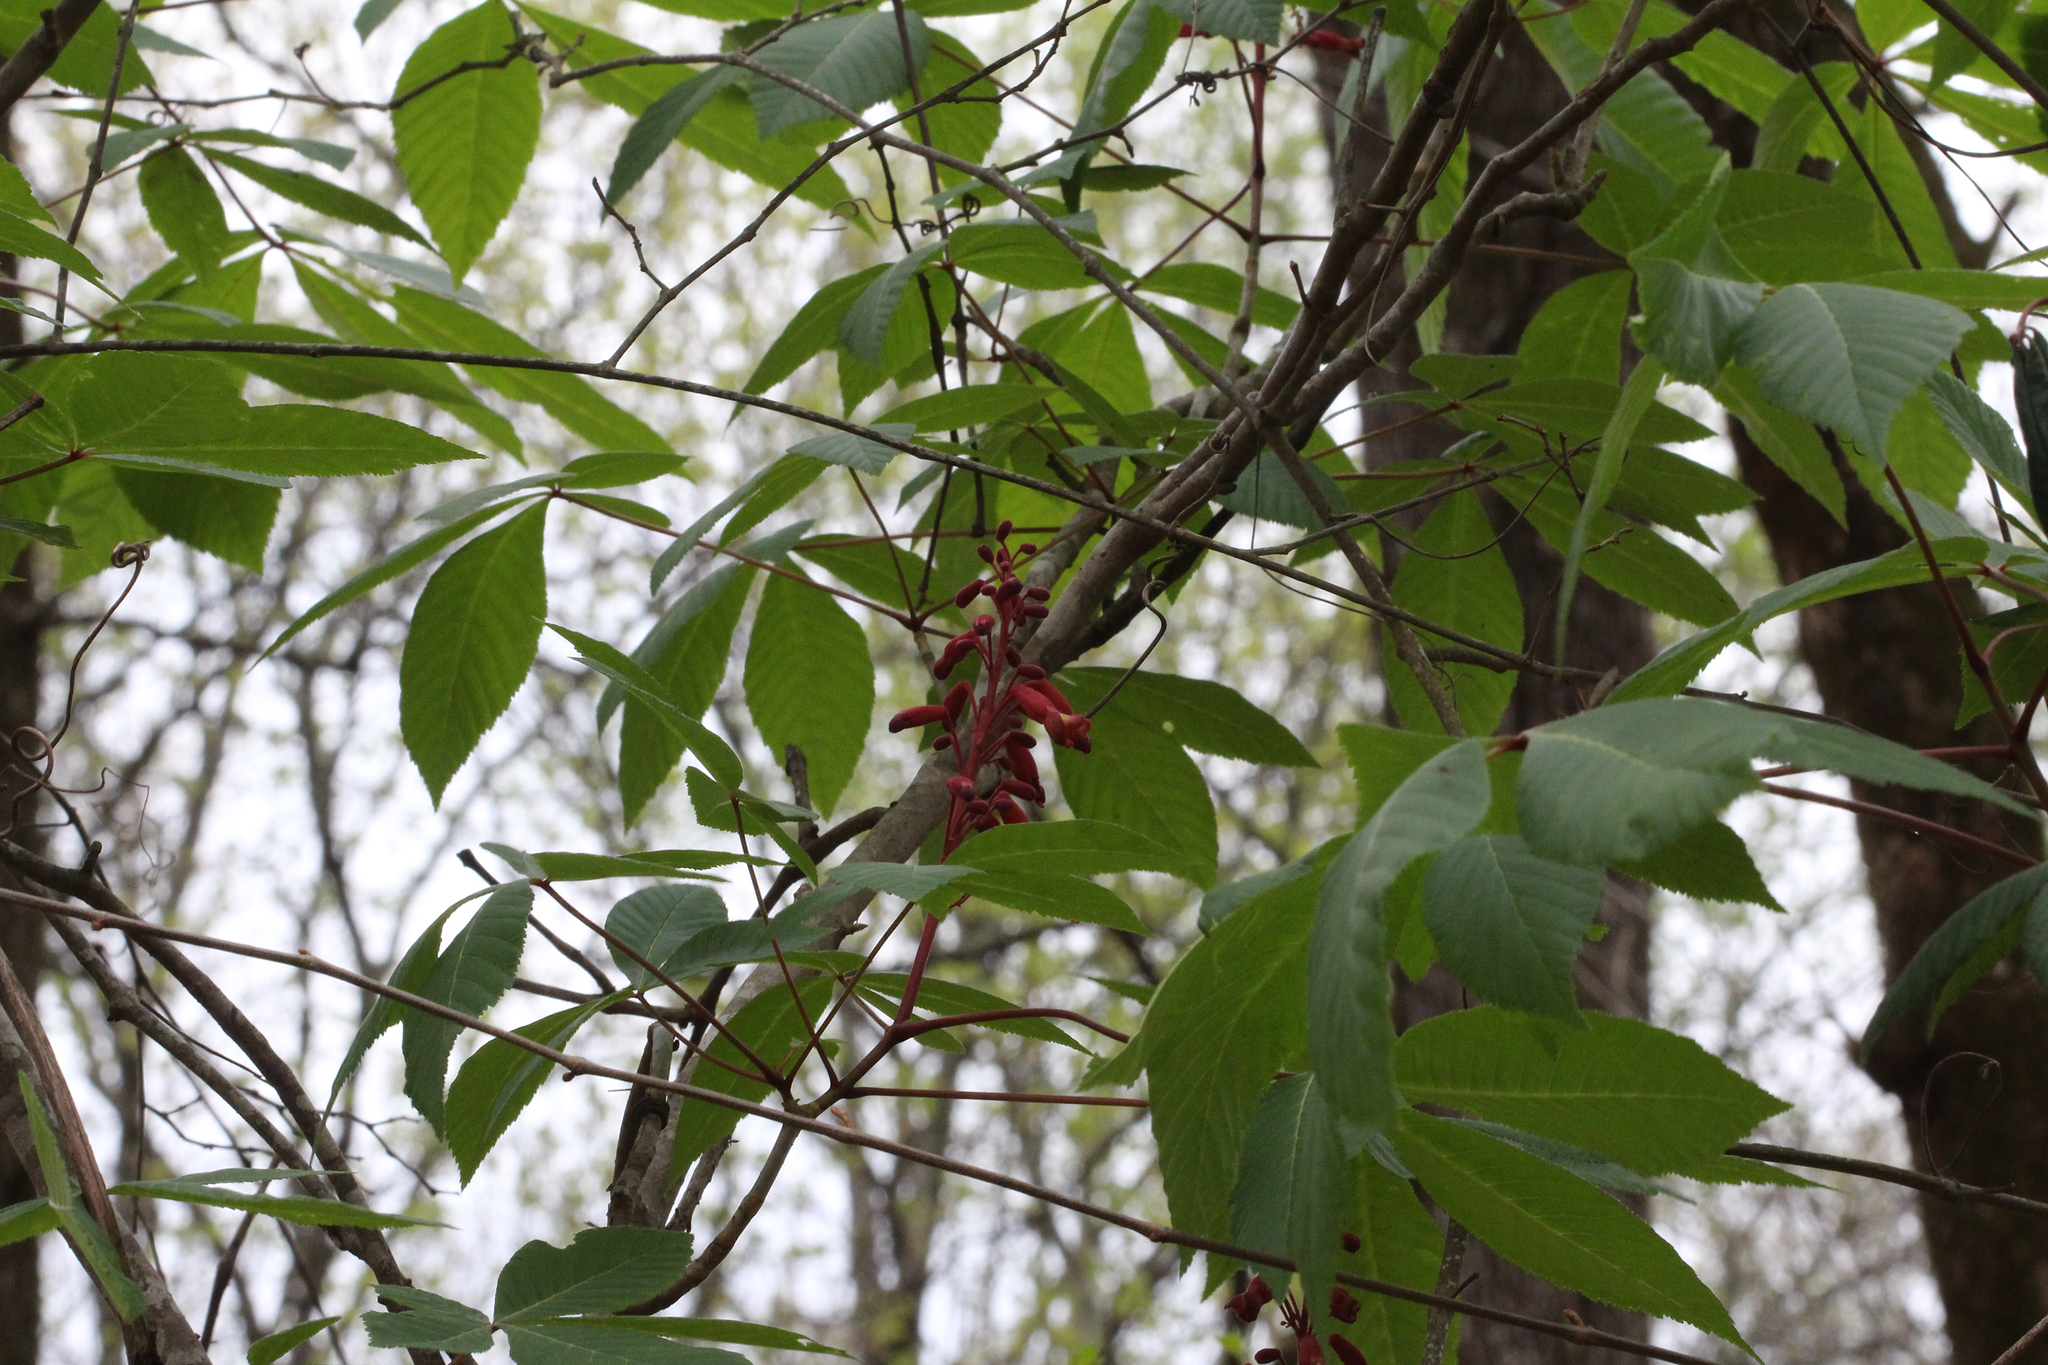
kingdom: Plantae
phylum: Tracheophyta
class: Magnoliopsida
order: Sapindales
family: Sapindaceae
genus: Aesculus
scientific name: Aesculus pavia
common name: Red buckeye
